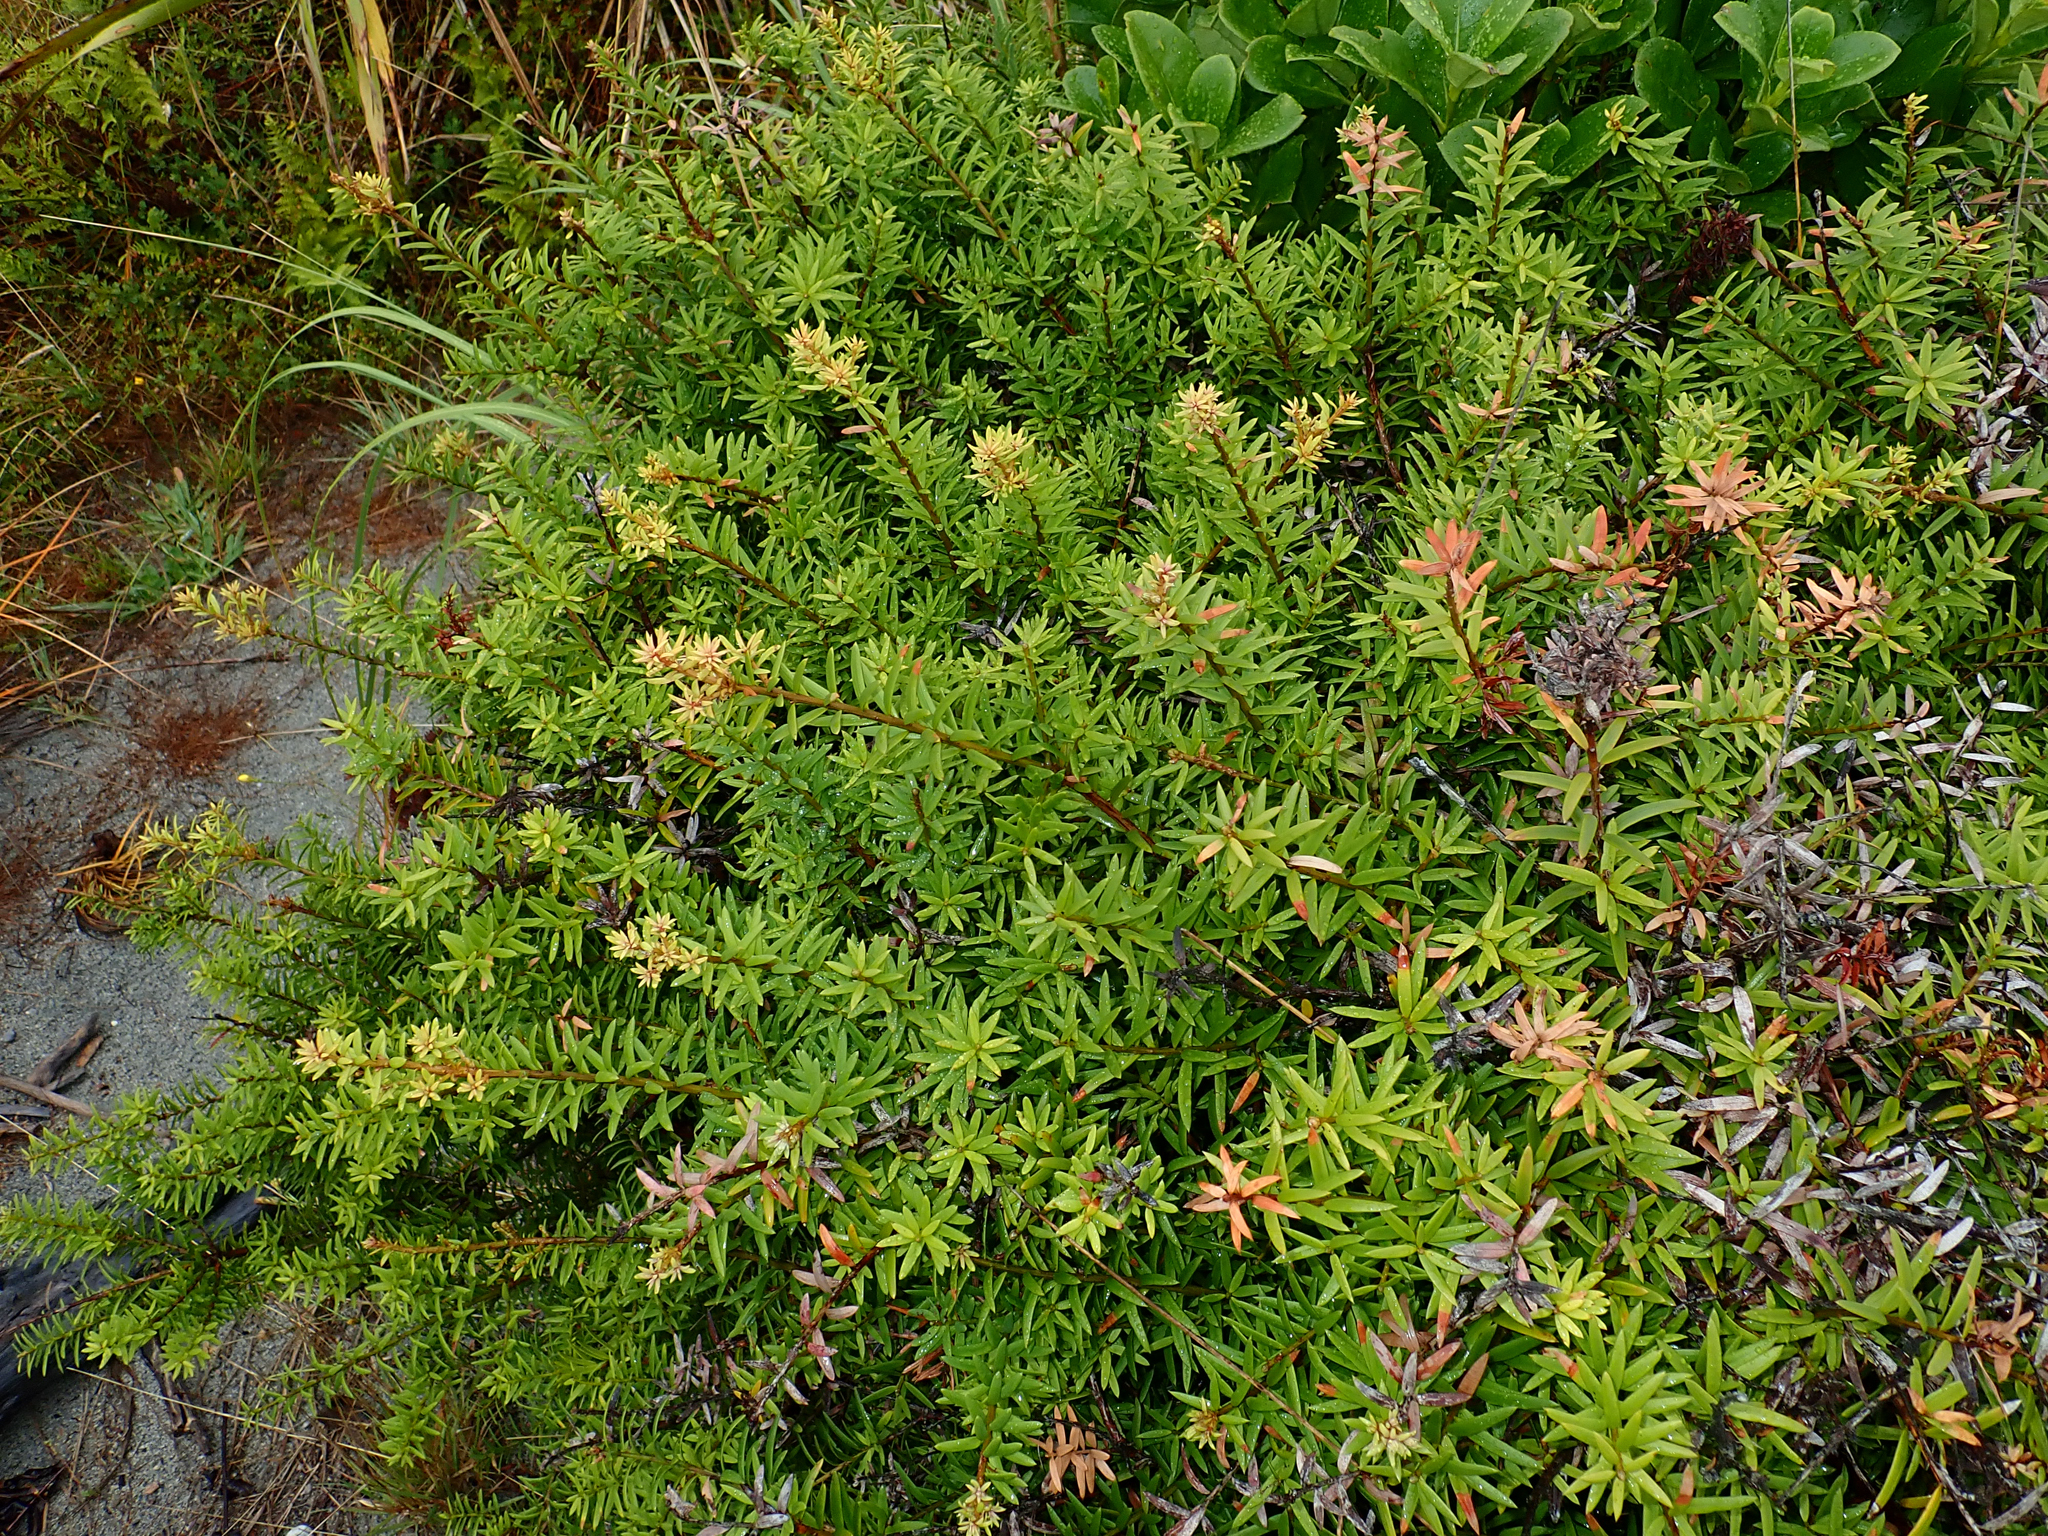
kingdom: Plantae
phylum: Tracheophyta
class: Pinopsida
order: Pinales
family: Podocarpaceae
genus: Podocarpus
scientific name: Podocarpus laetus
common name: Hall's totara
